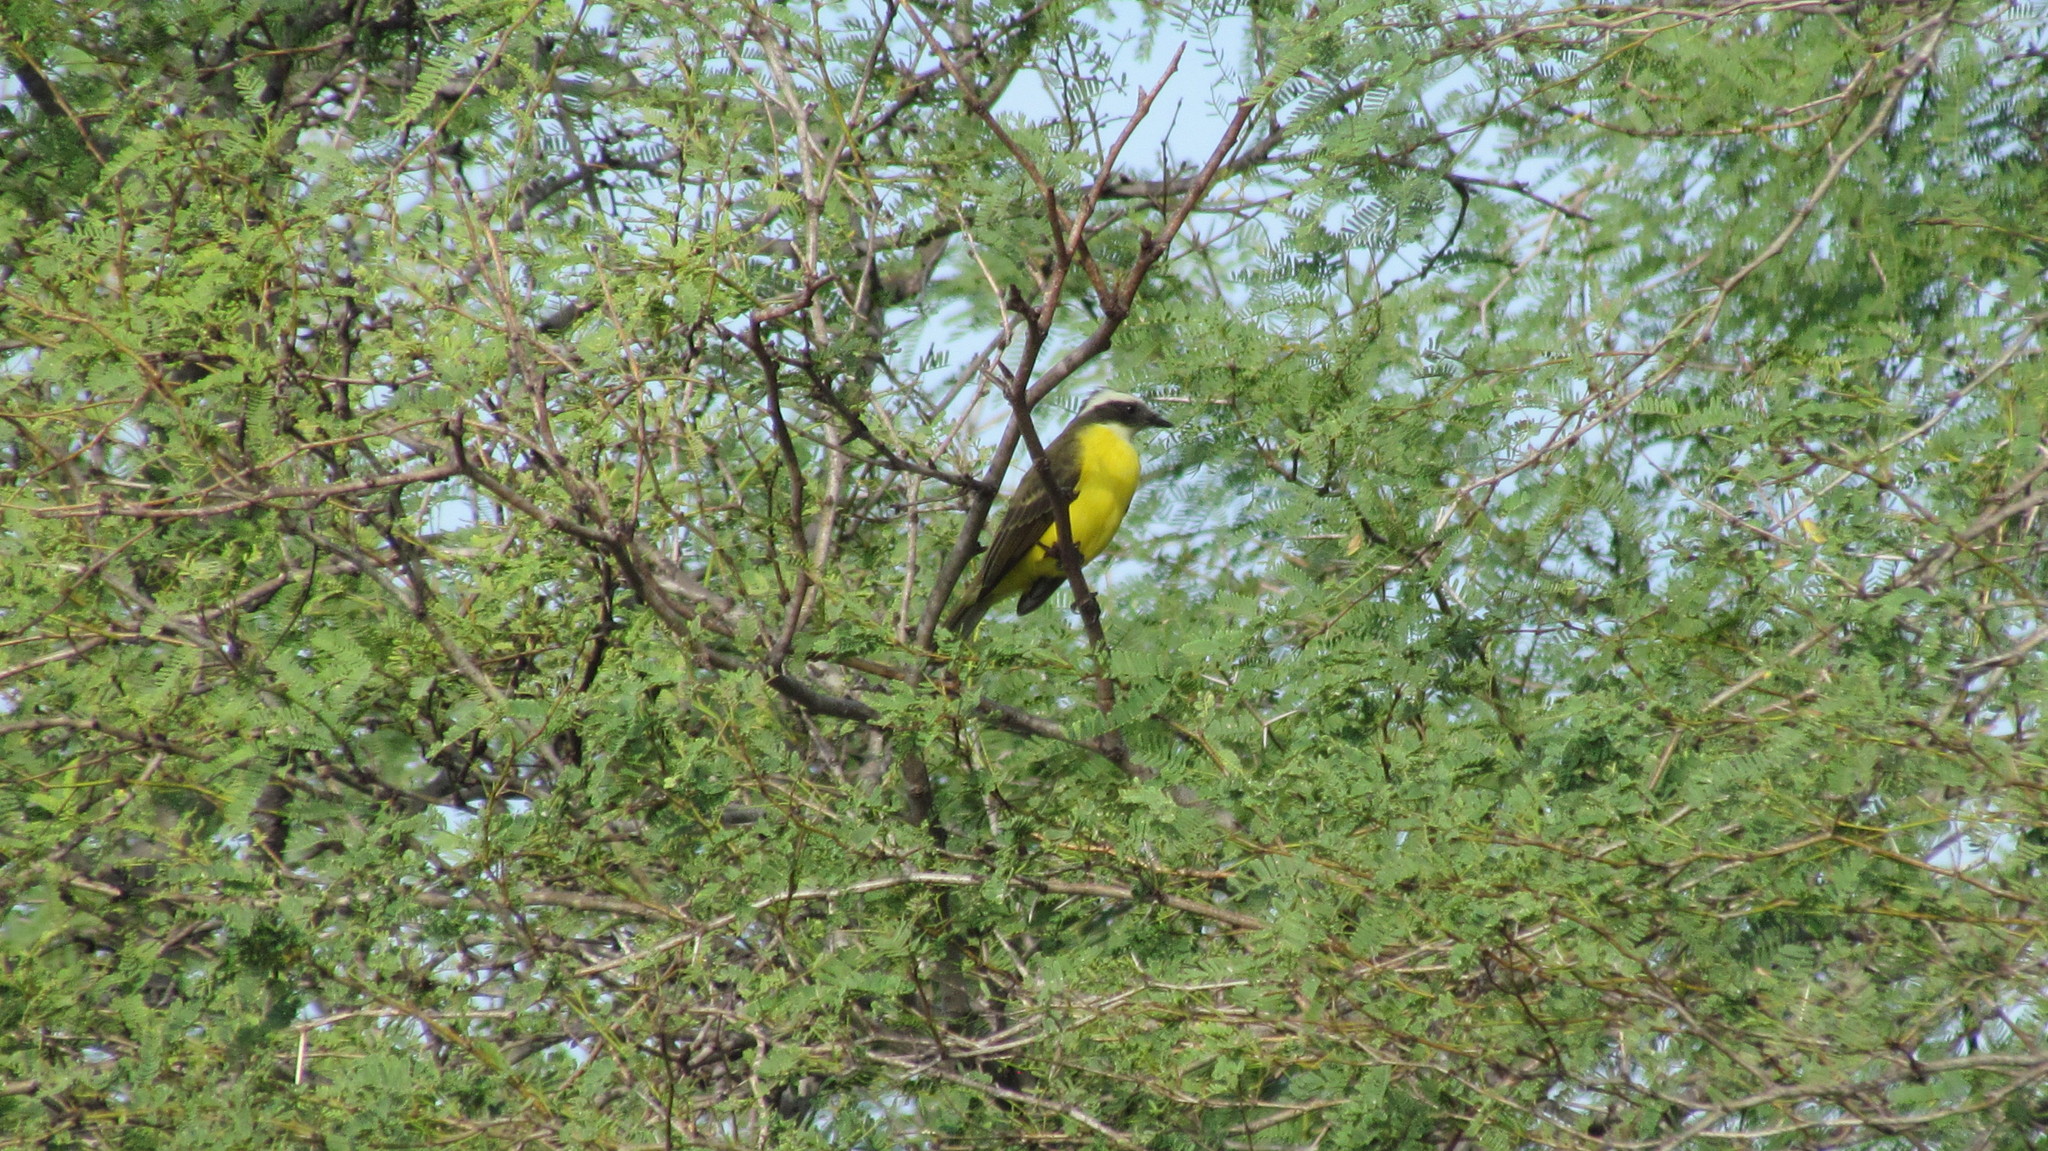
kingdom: Animalia
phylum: Chordata
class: Aves
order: Passeriformes
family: Tyrannidae
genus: Myiozetetes
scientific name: Myiozetetes similis
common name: Social flycatcher
